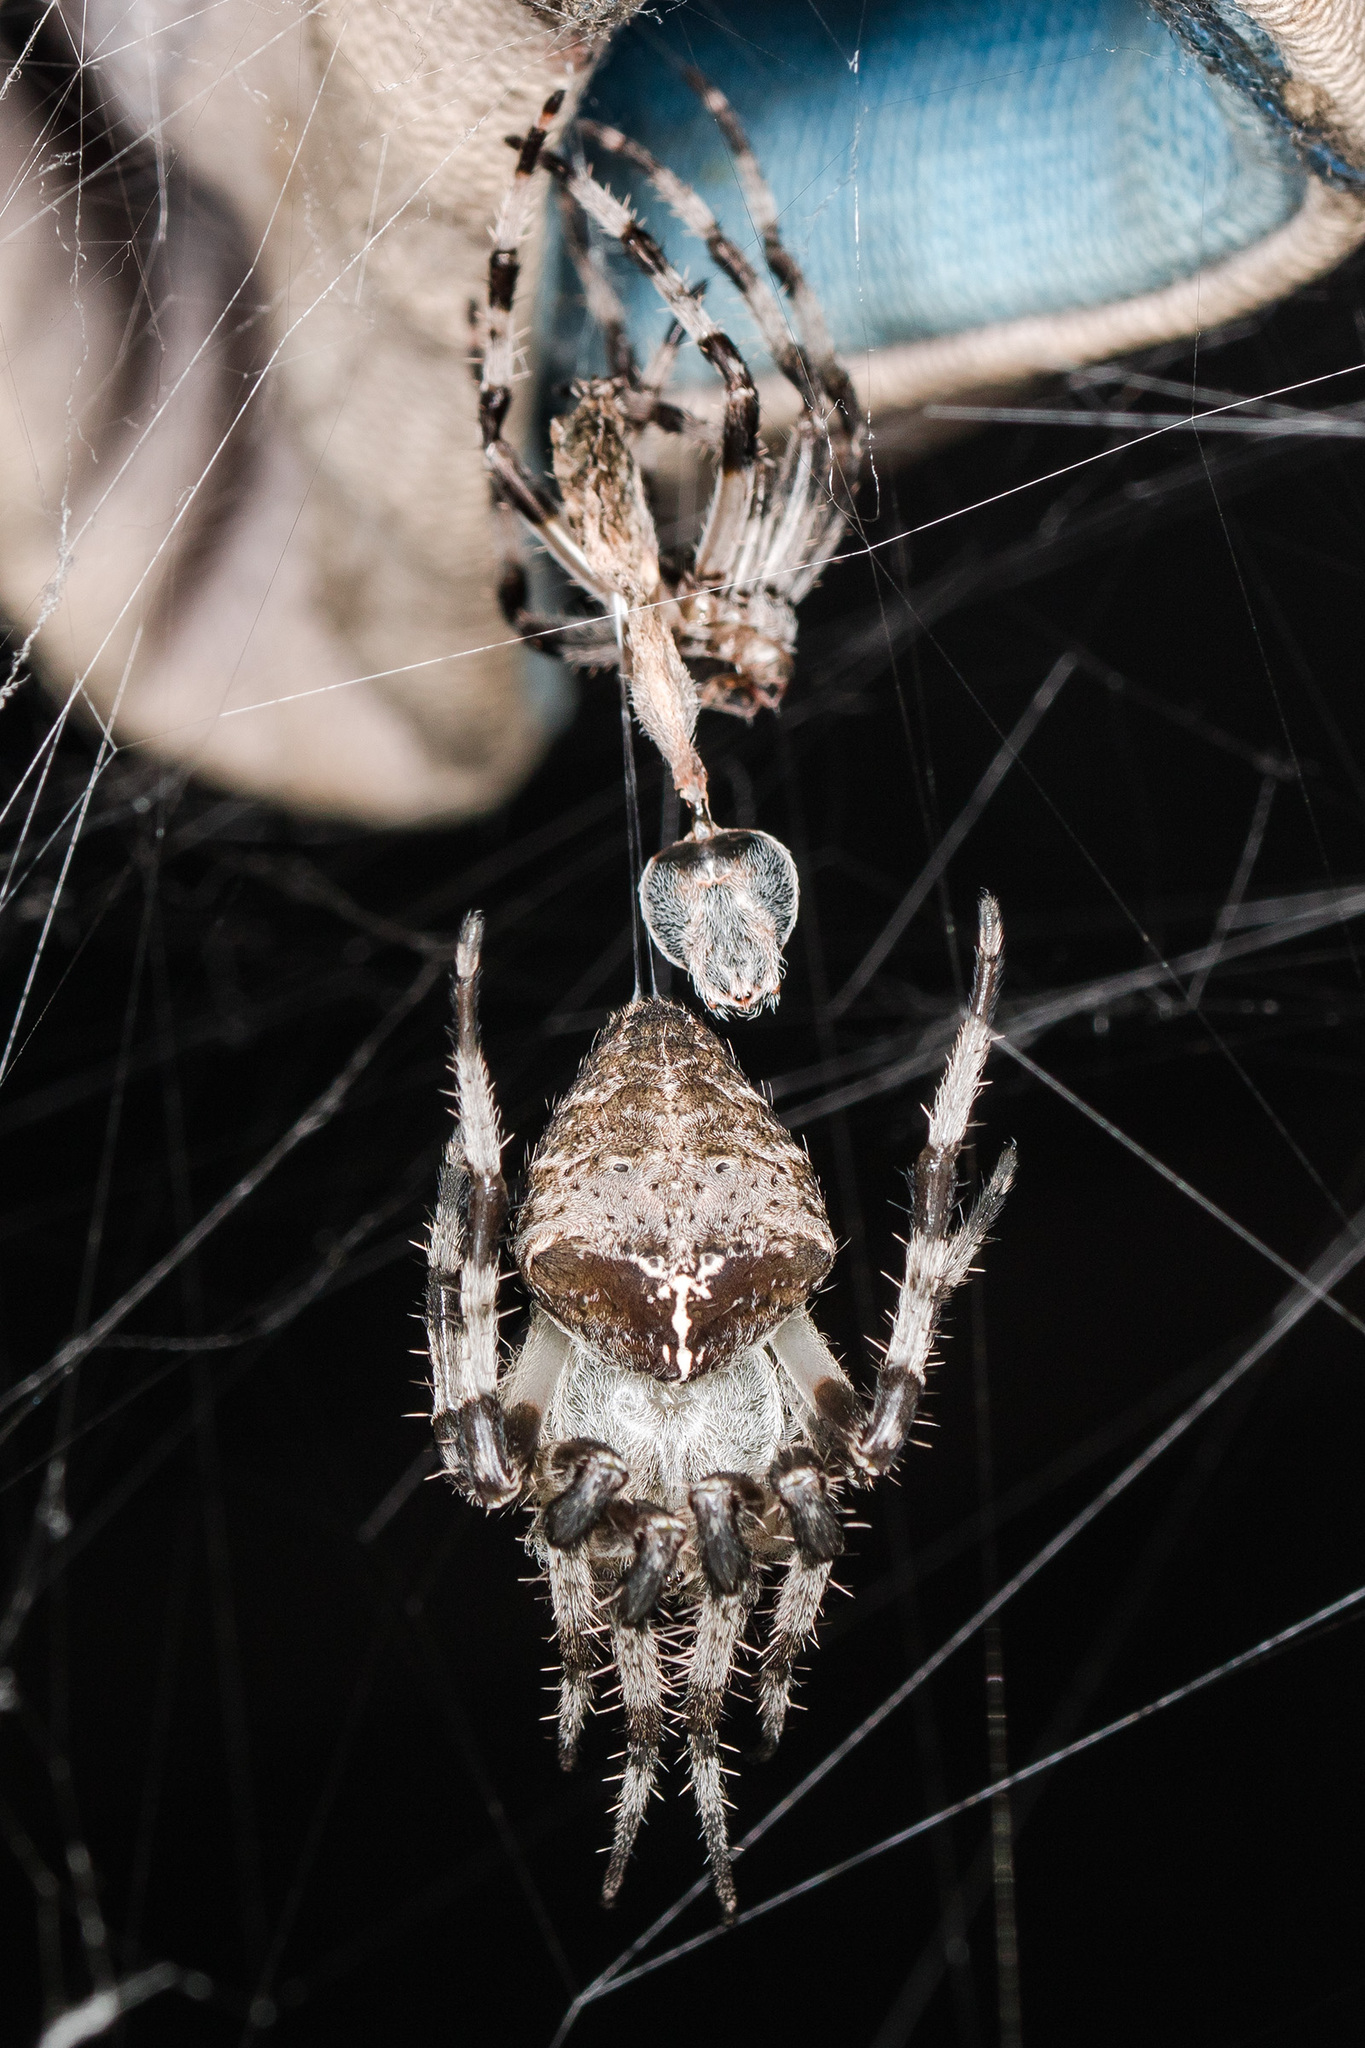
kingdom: Animalia
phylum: Arthropoda
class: Arachnida
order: Araneae
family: Araneidae
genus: Araneus
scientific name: Araneus tartaricus
